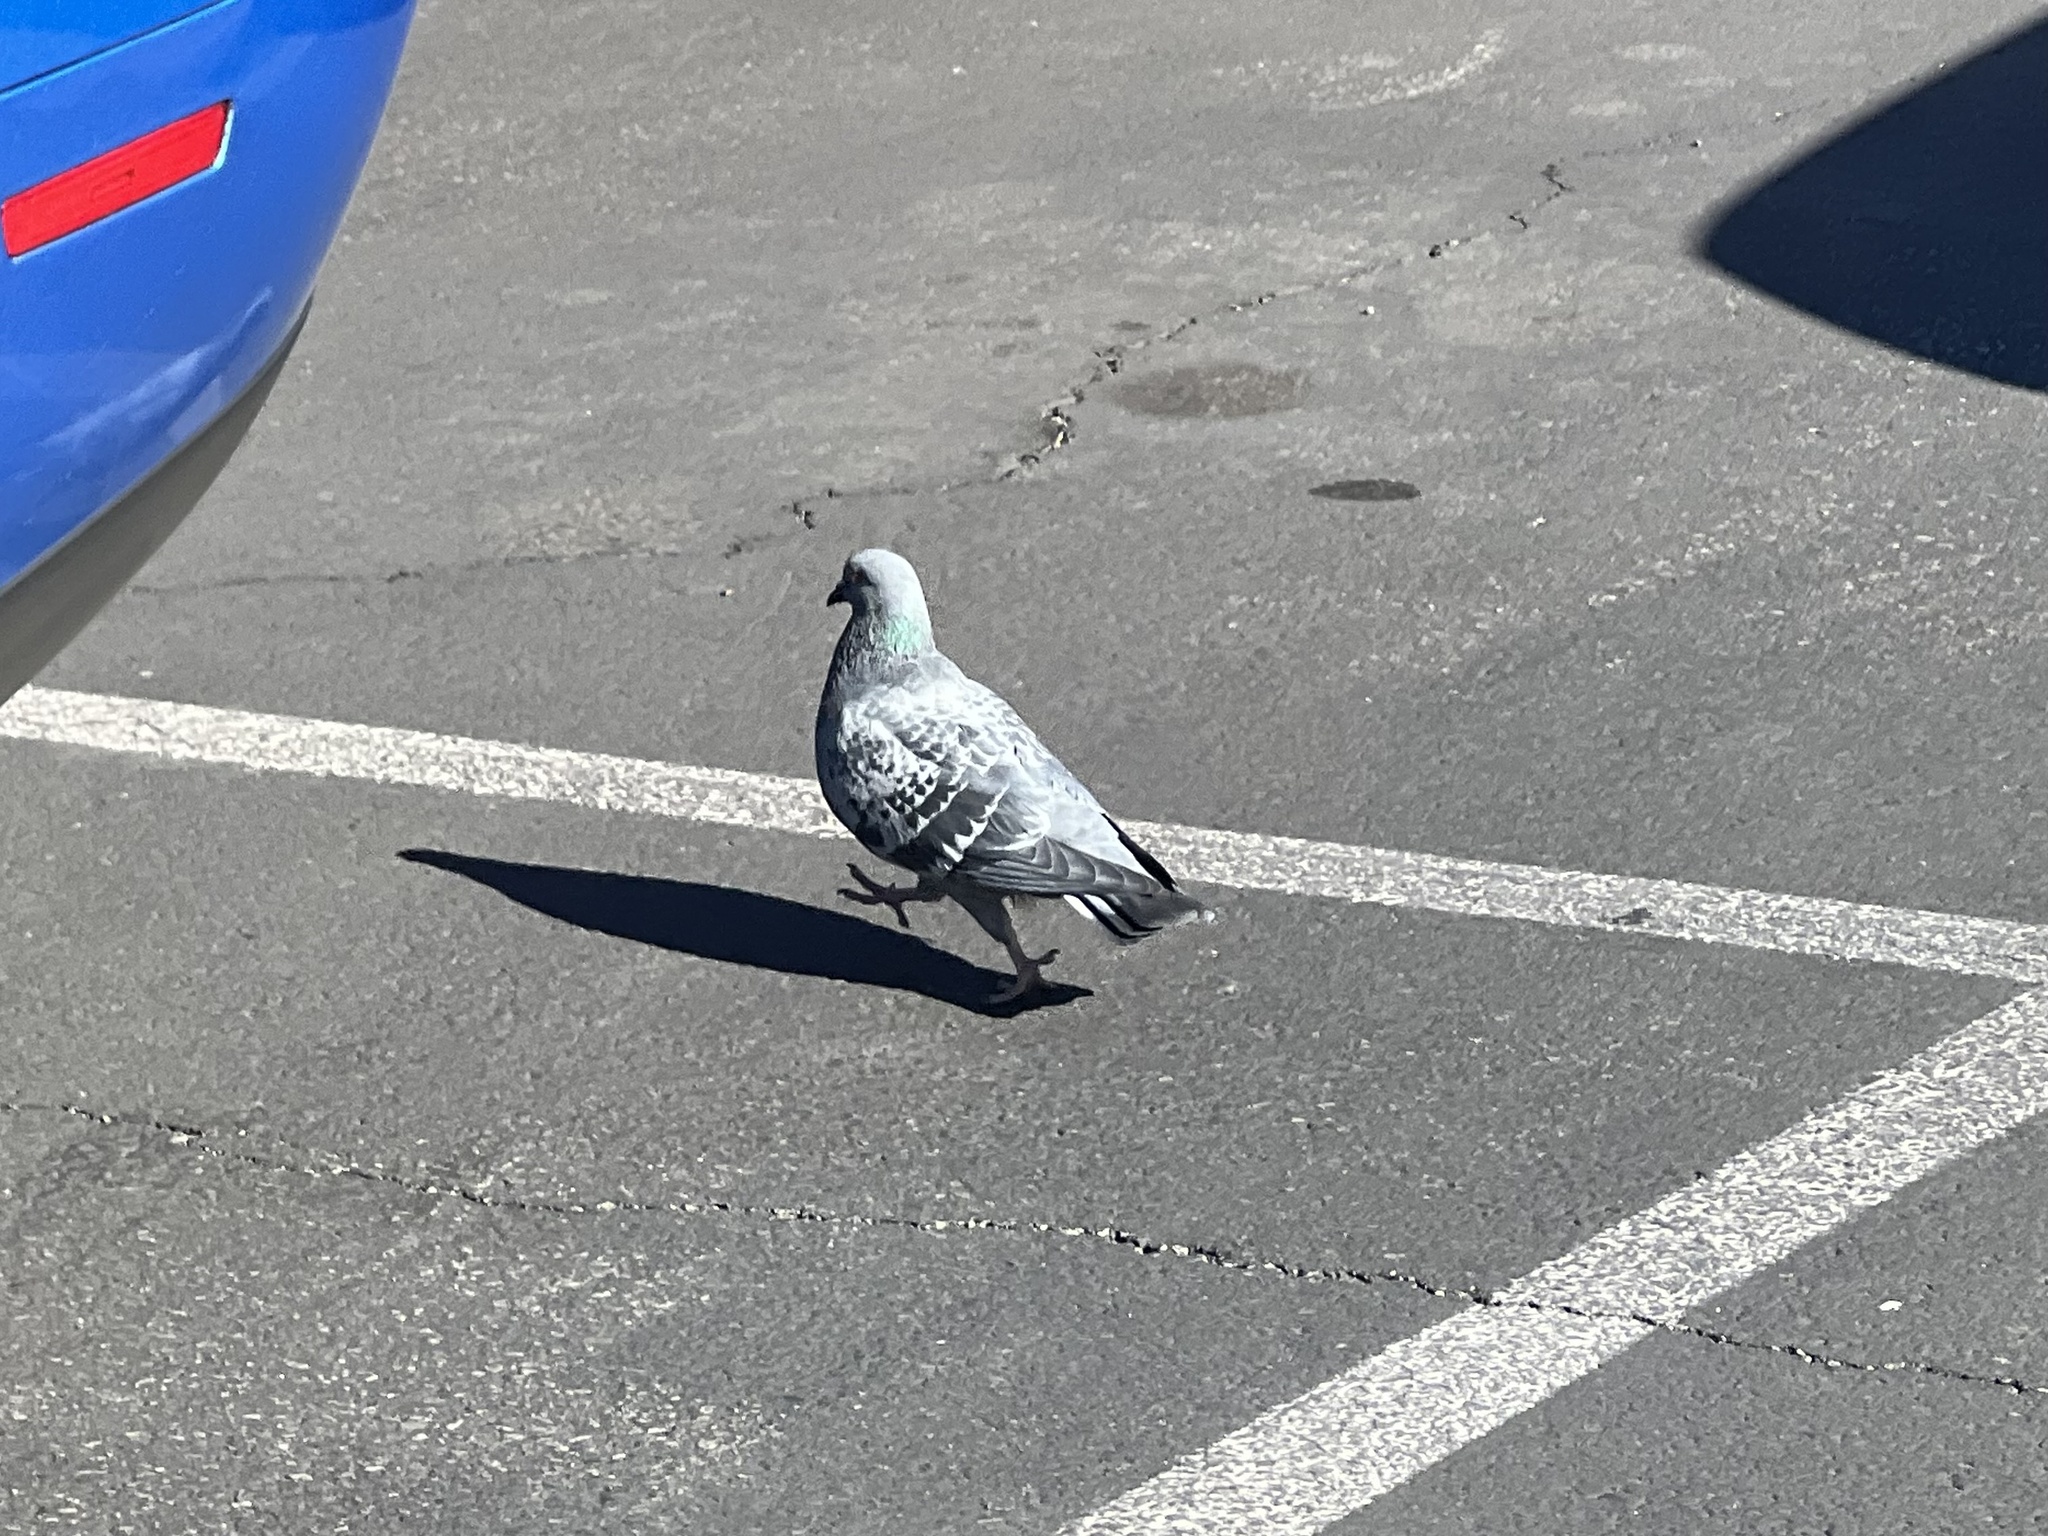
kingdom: Animalia
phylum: Chordata
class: Aves
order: Columbiformes
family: Columbidae
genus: Columba
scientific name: Columba livia
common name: Rock pigeon
